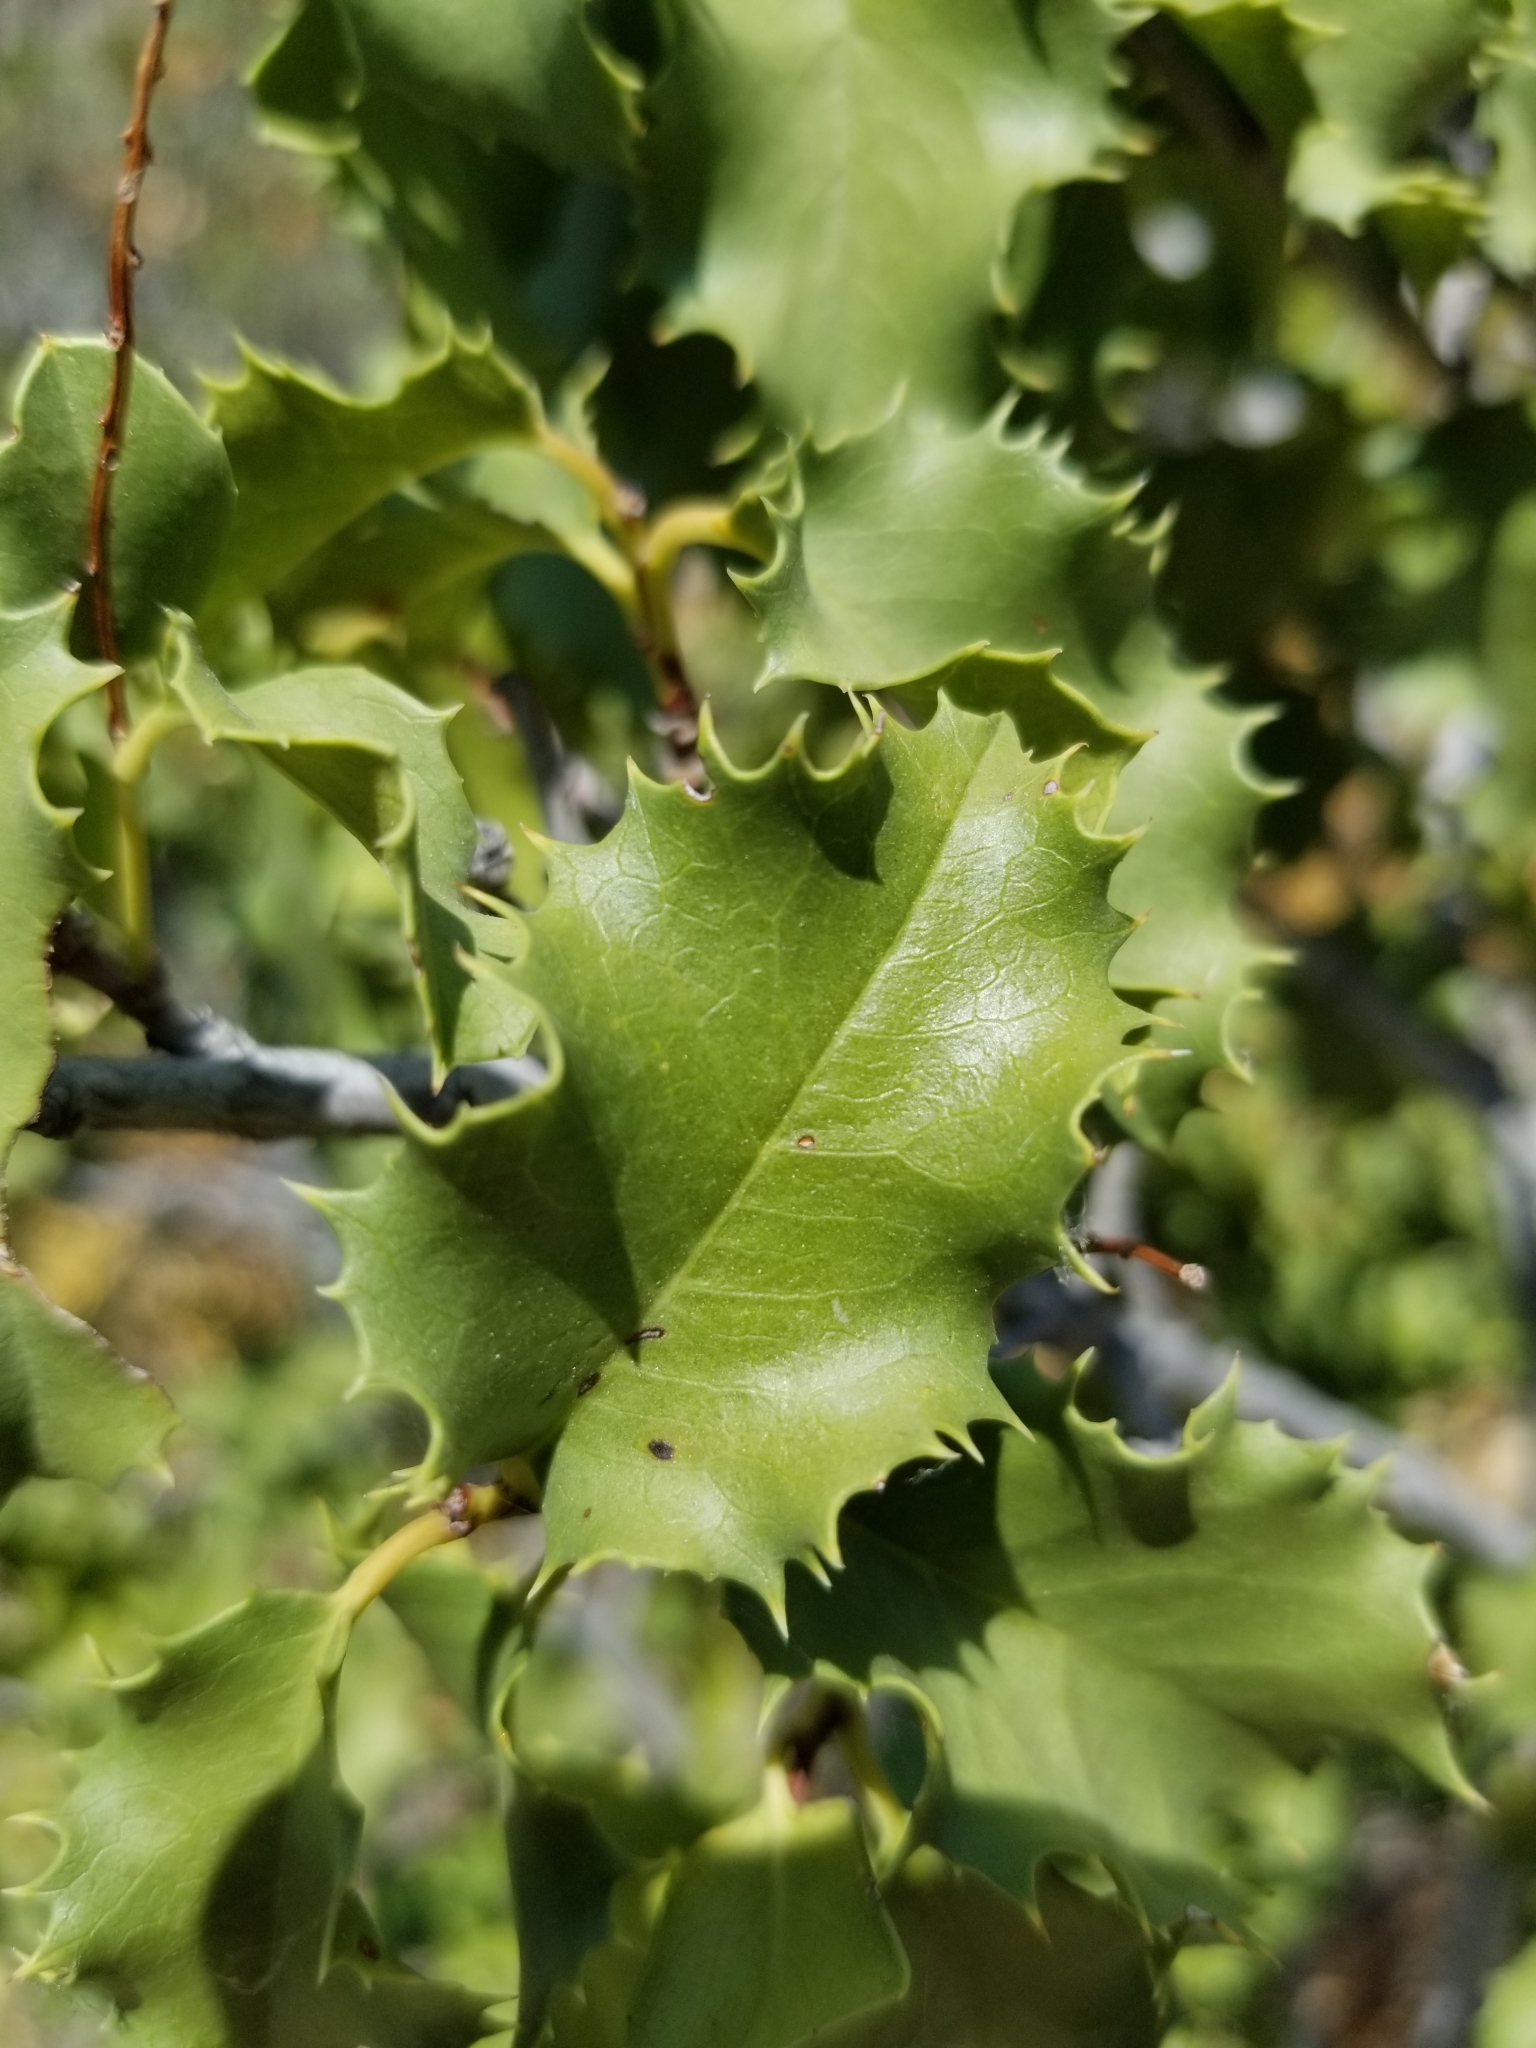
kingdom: Plantae
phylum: Tracheophyta
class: Magnoliopsida
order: Rosales
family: Rosaceae
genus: Prunus
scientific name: Prunus ilicifolia
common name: Hollyleaf cherry
